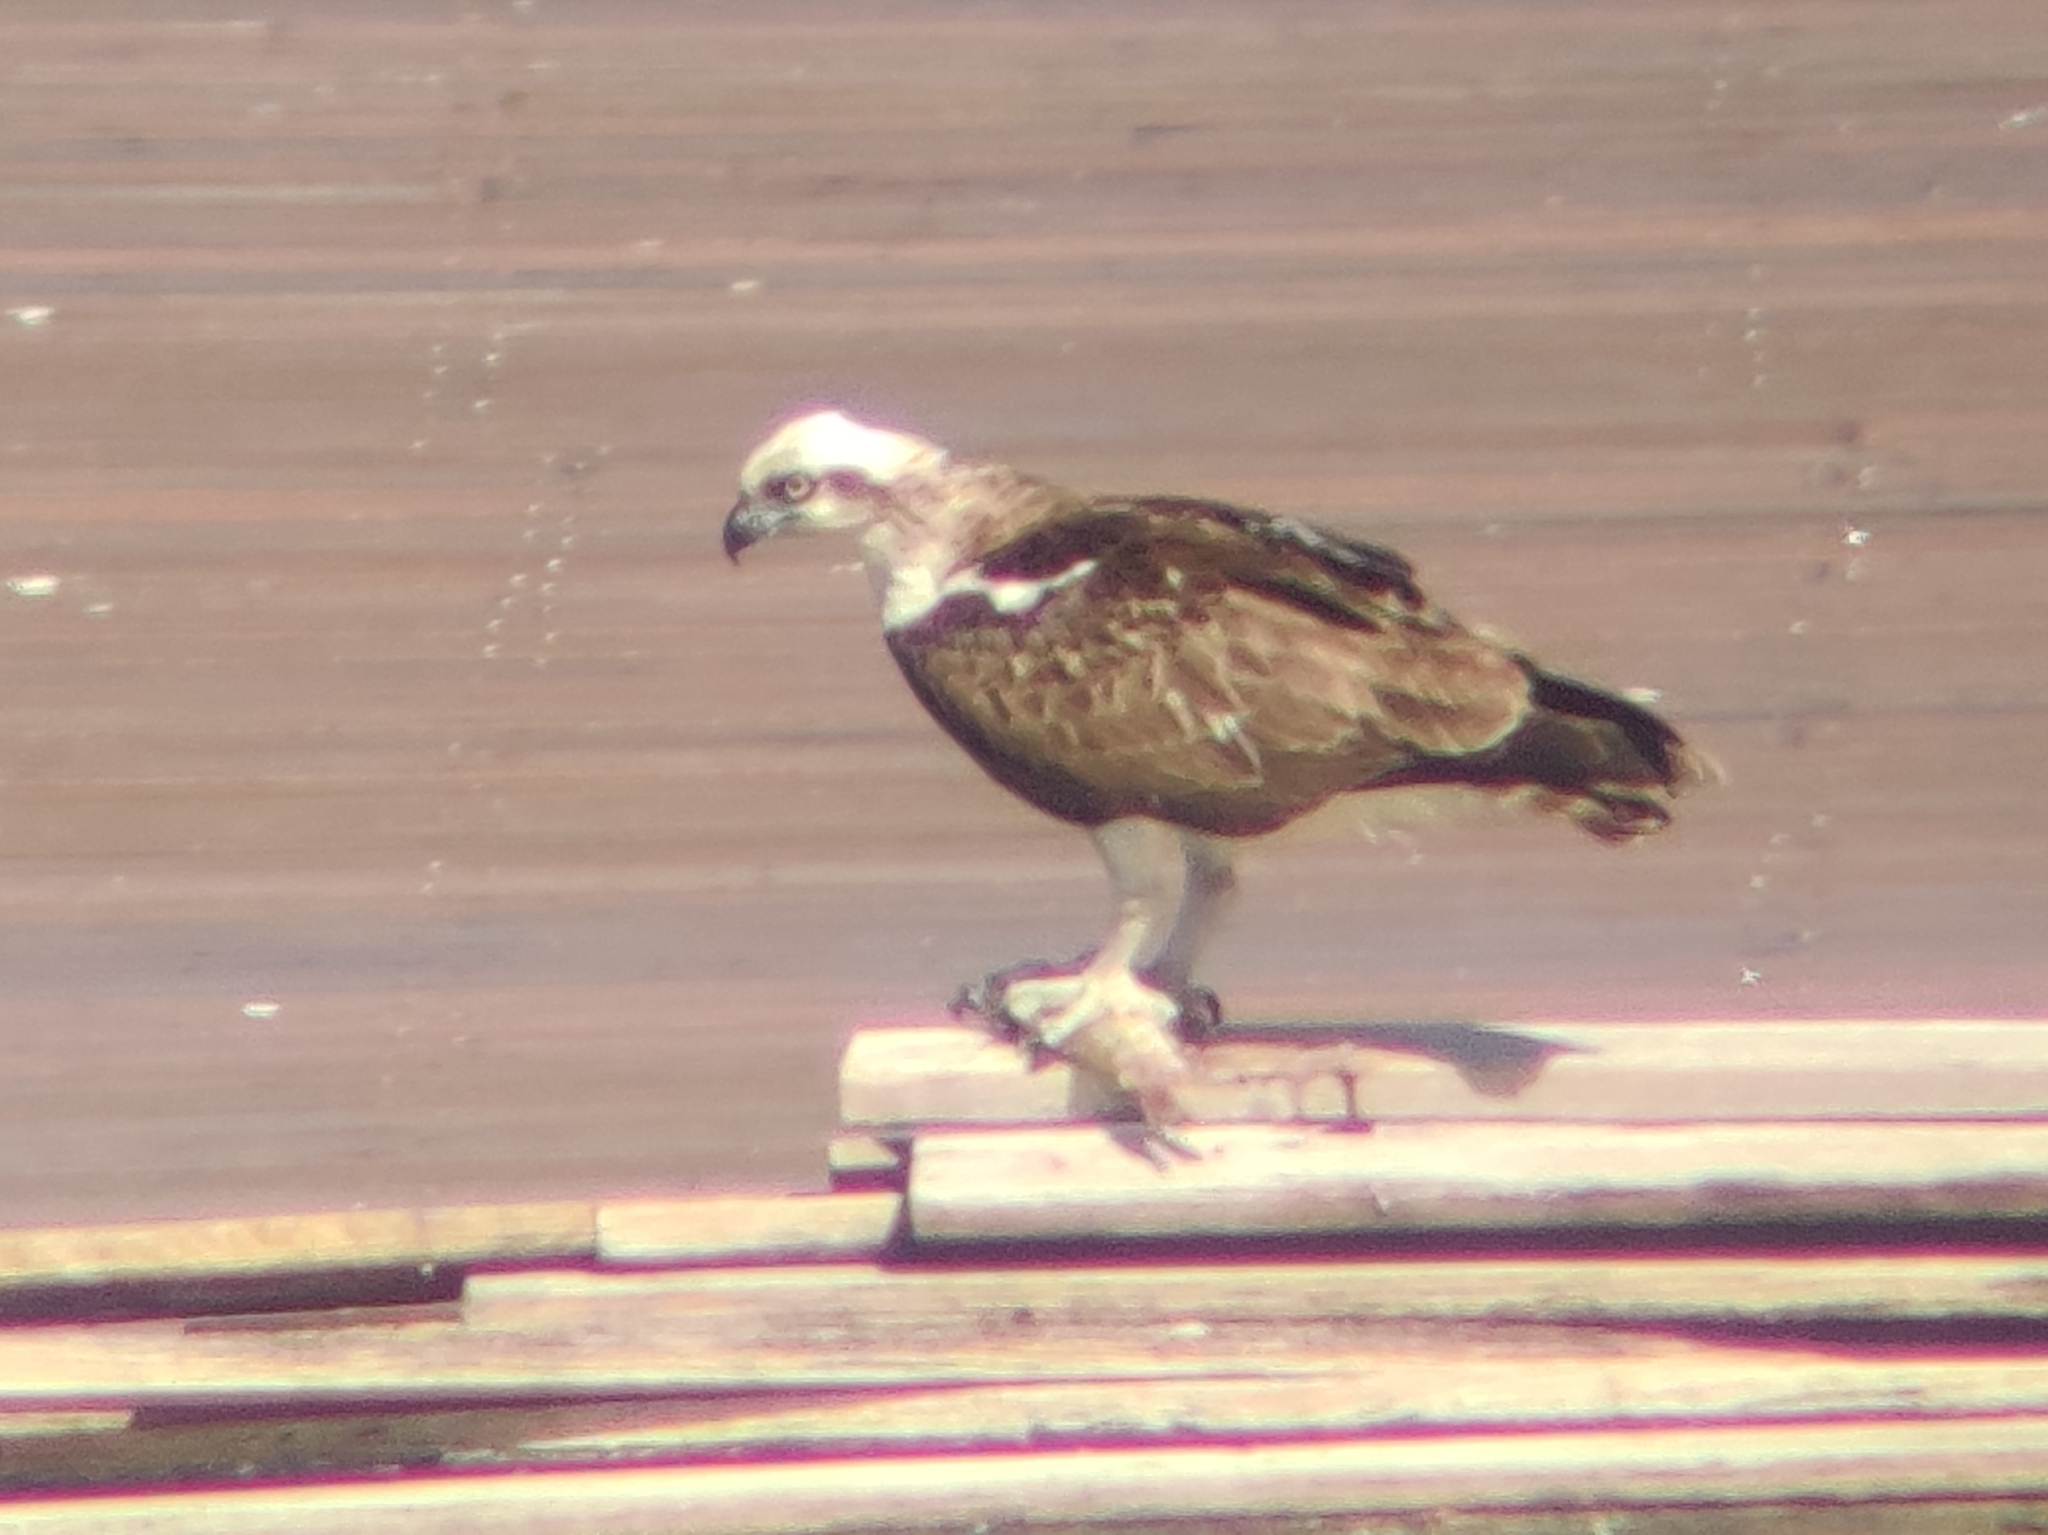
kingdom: Animalia
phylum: Chordata
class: Aves
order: Accipitriformes
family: Pandionidae
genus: Pandion
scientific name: Pandion cristatus
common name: Eastern osprey
